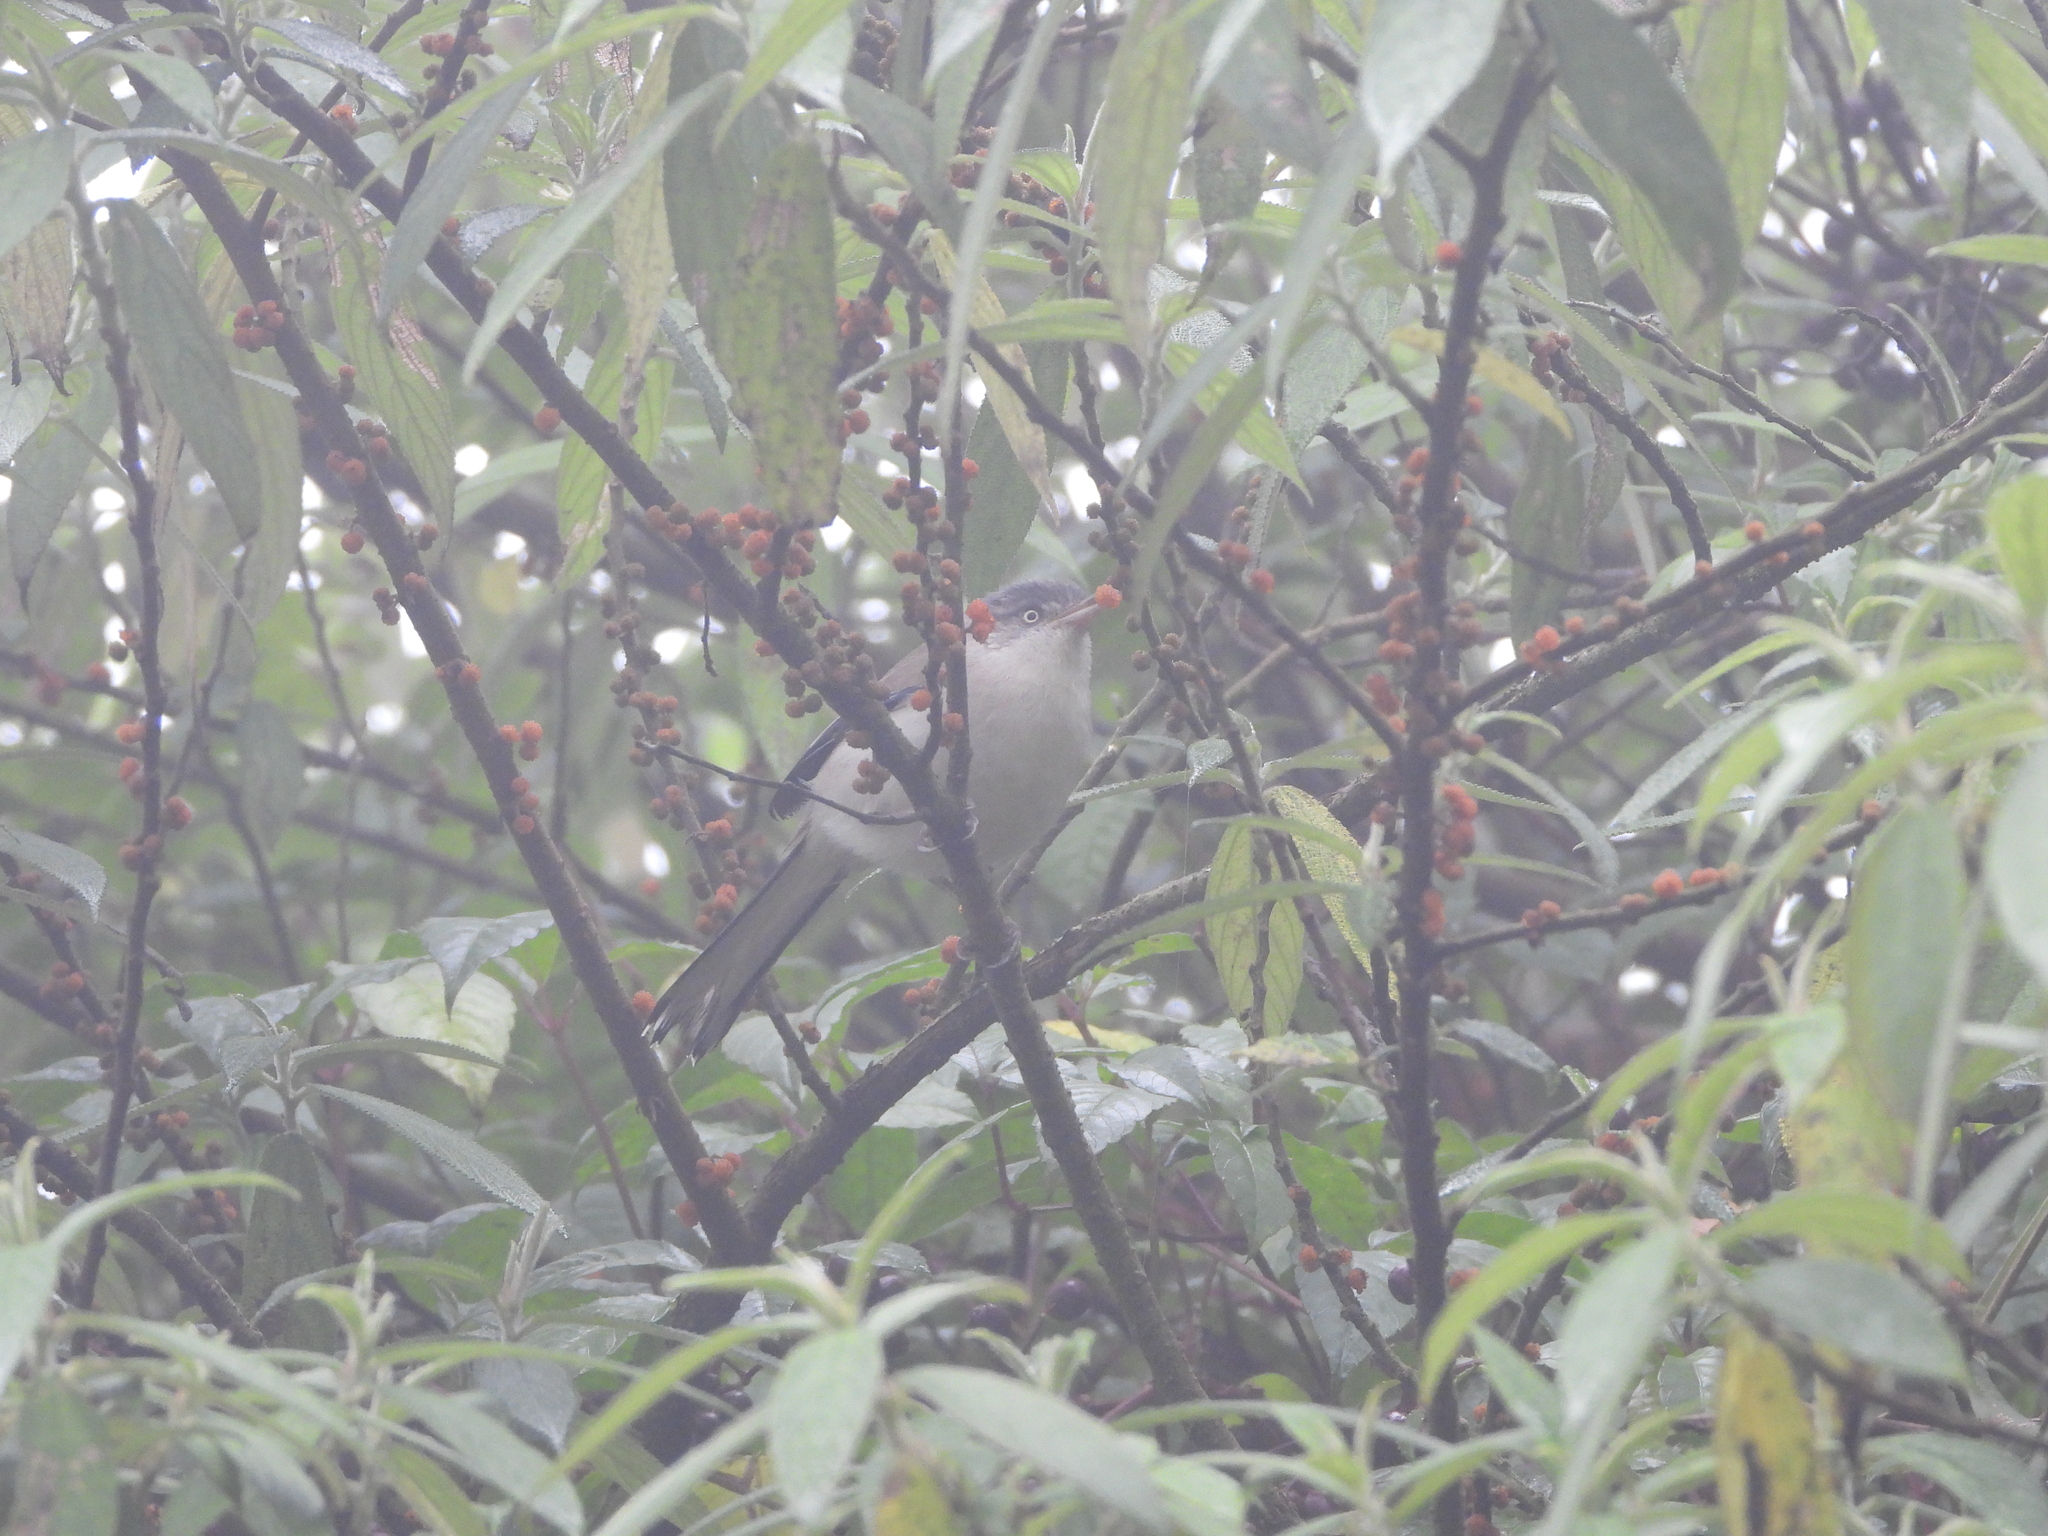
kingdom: Animalia
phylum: Chordata
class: Aves
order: Passeriformes
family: Leiothrichidae
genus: Minla
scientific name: Minla cyanouroptera
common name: Blue-winged minla
